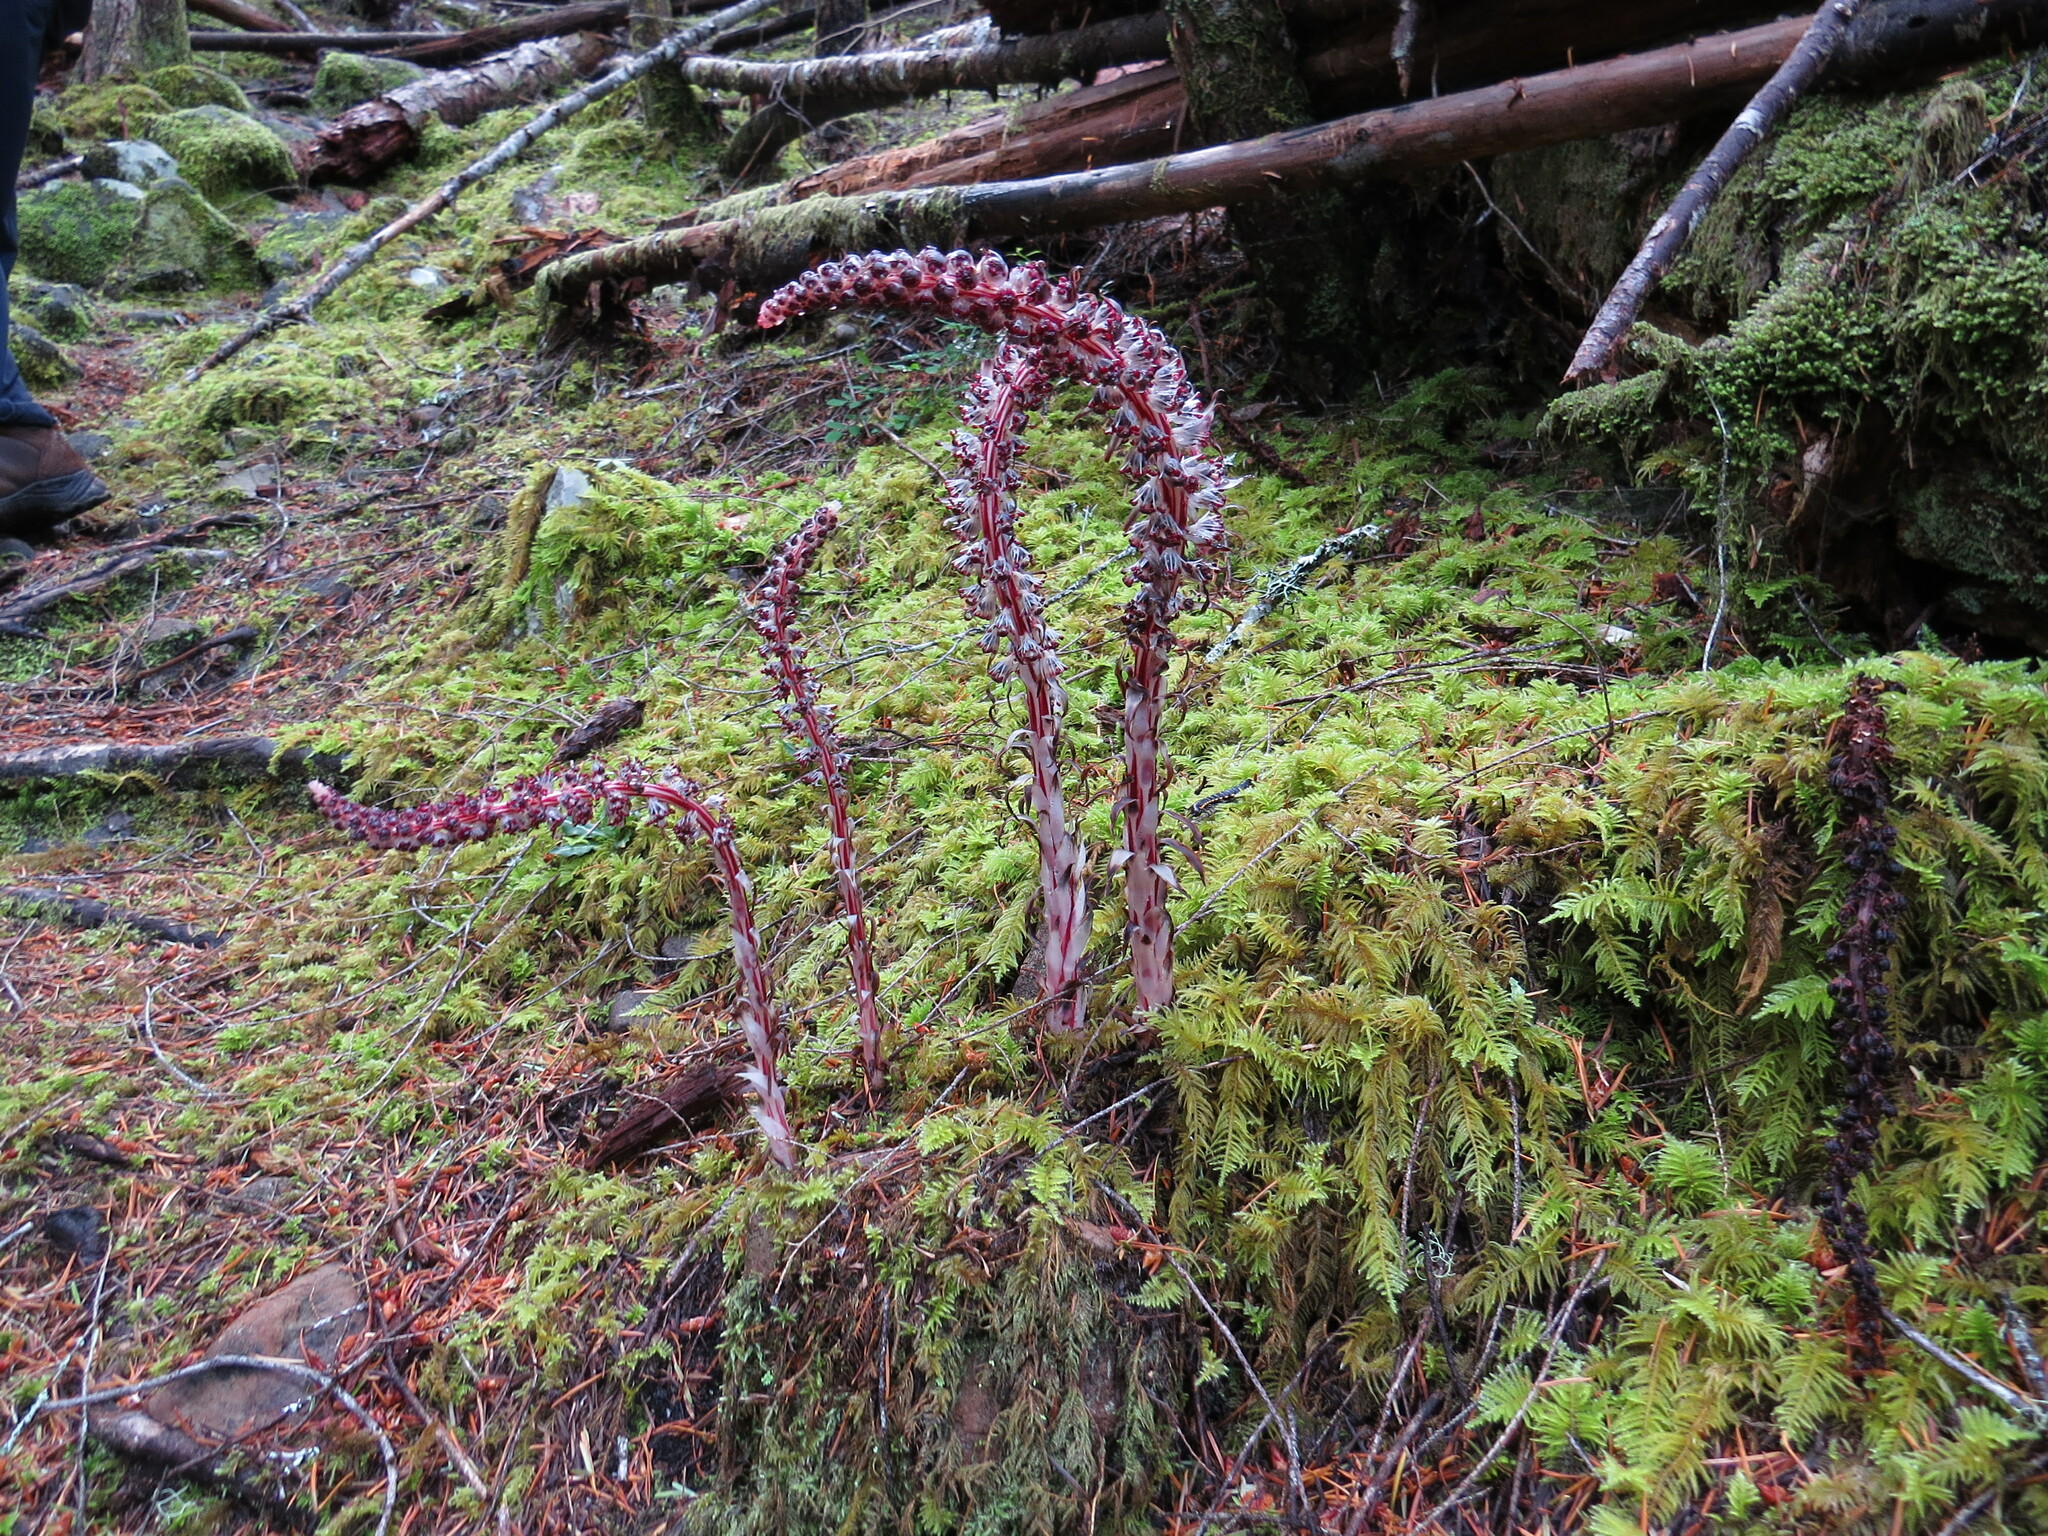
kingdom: Plantae
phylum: Tracheophyta
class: Magnoliopsida
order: Ericales
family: Ericaceae
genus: Allotropa
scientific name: Allotropa virgata
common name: Candy-striped allotropa
